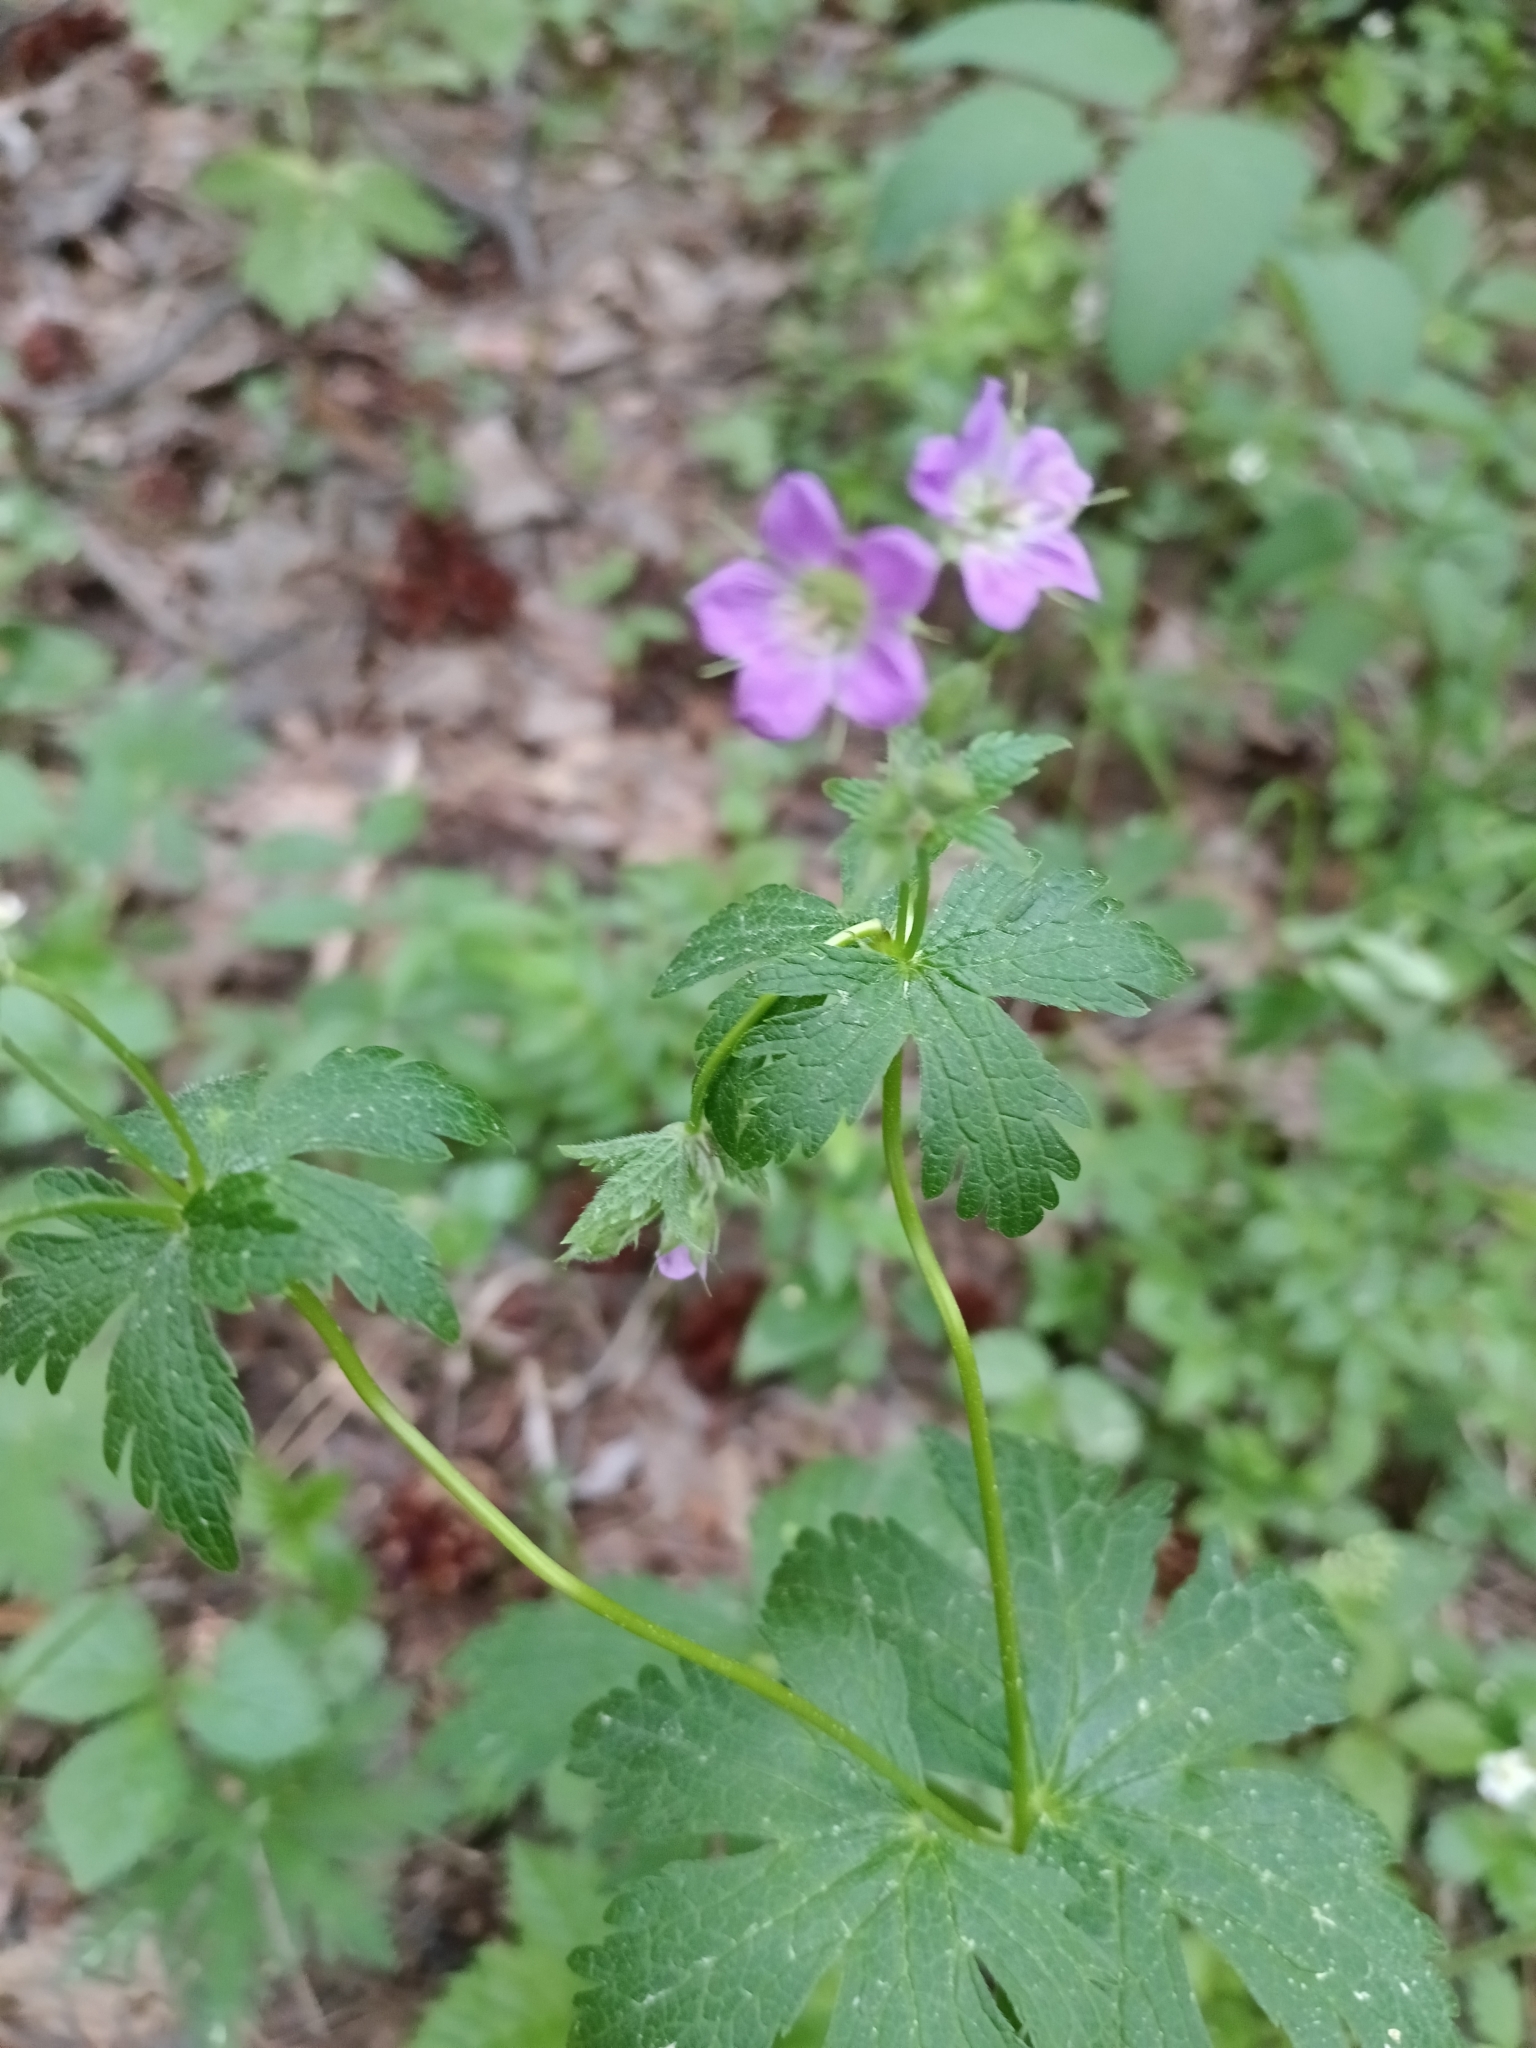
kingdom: Plantae
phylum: Tracheophyta
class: Magnoliopsida
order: Geraniales
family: Geraniaceae
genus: Geranium
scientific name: Geranium sylvaticum
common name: Wood crane's-bill
